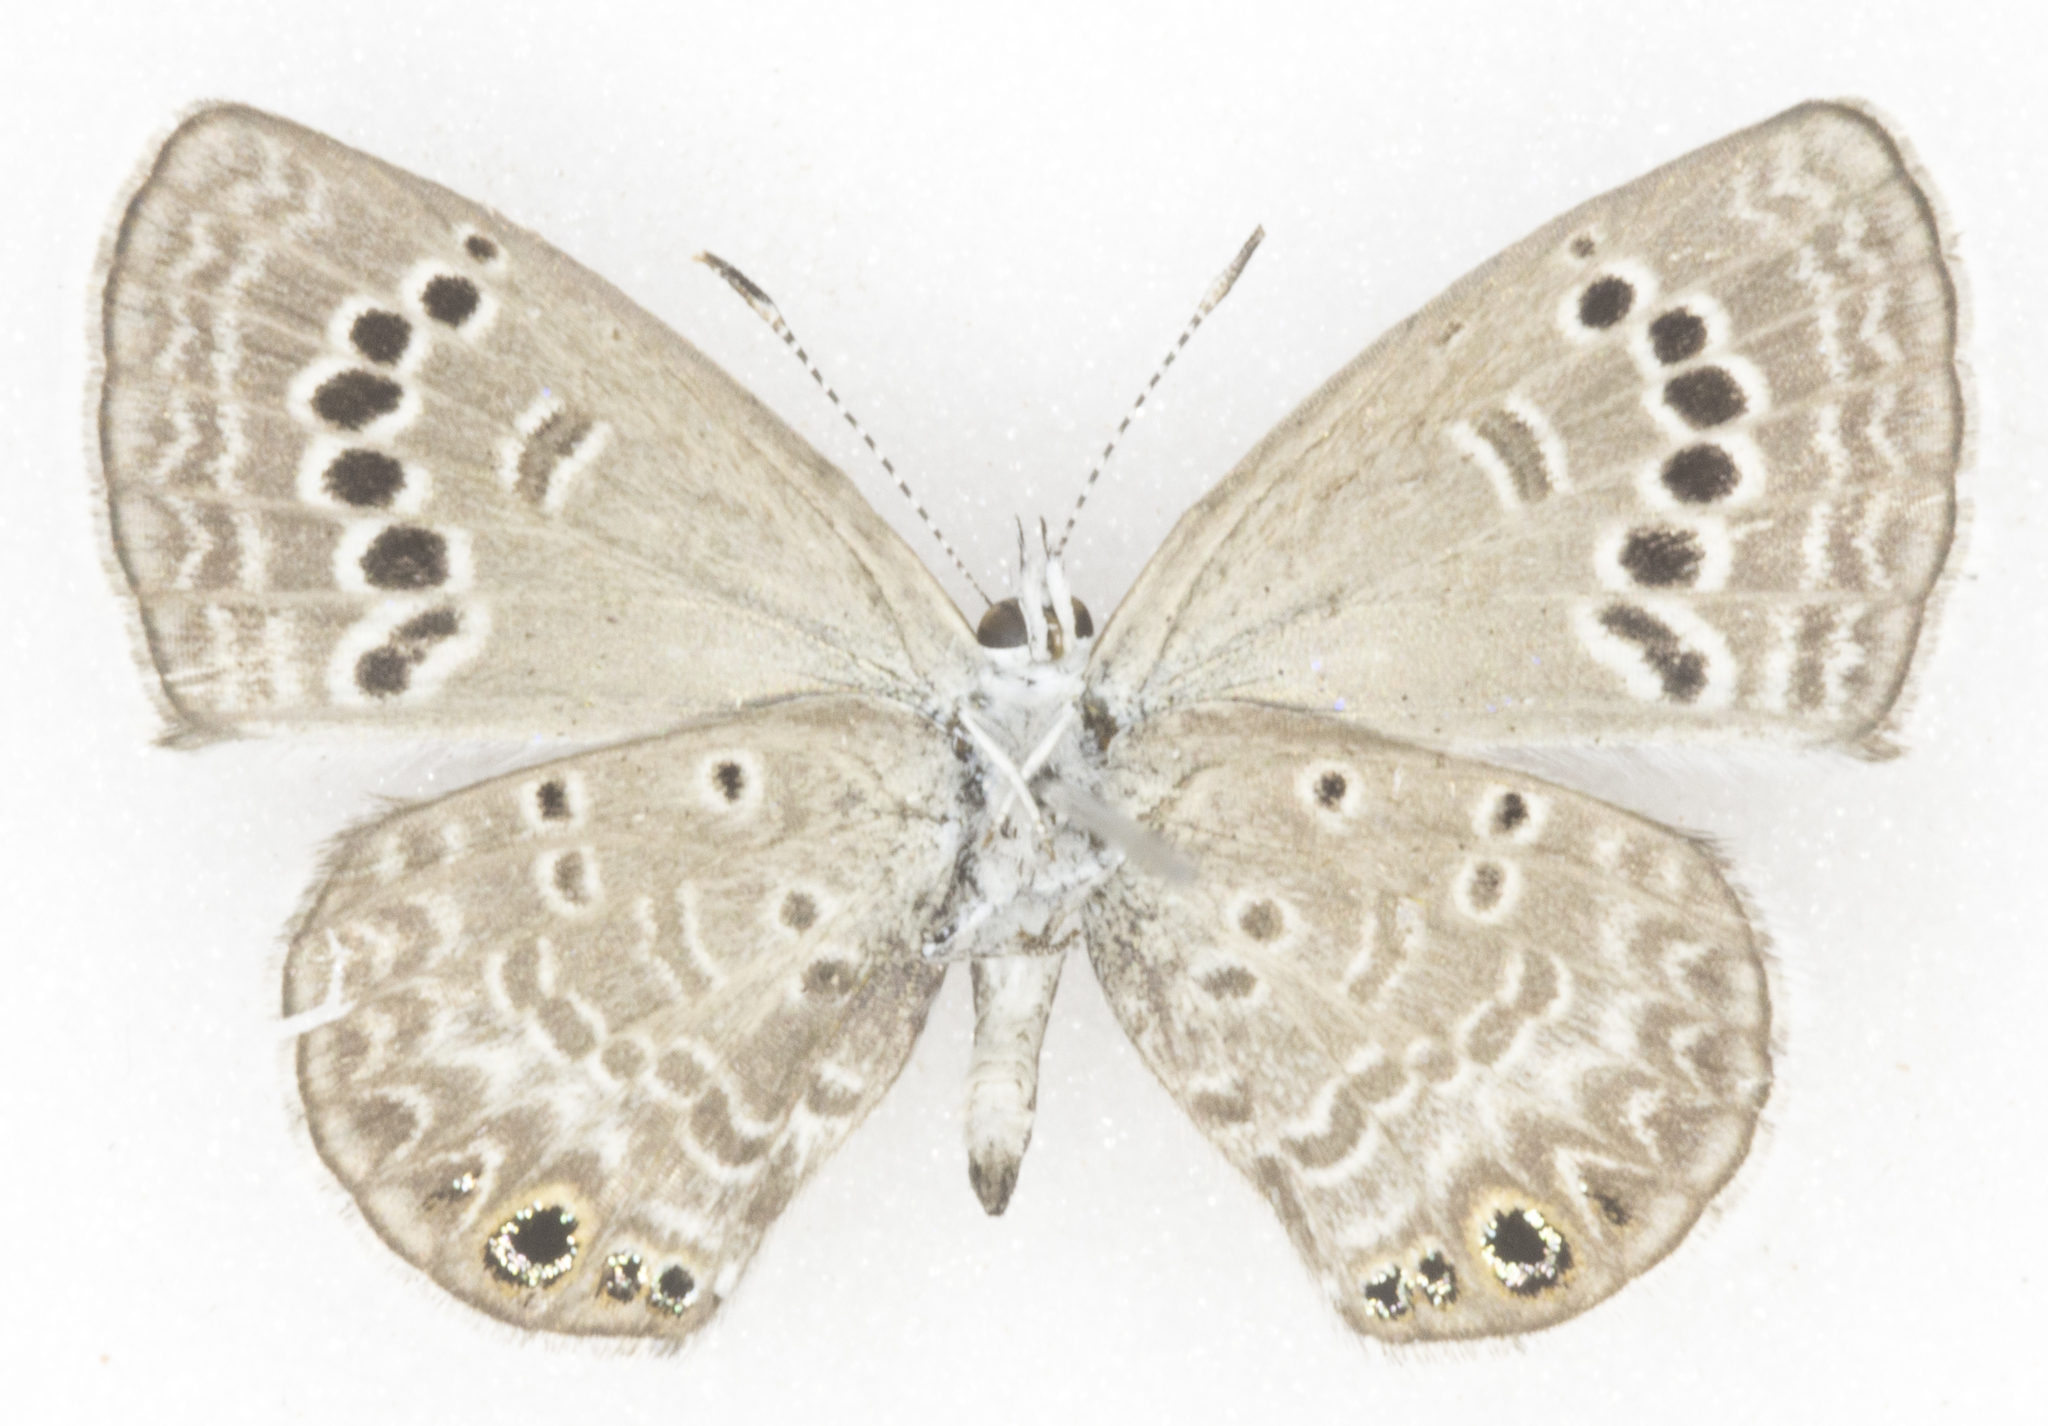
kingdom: Animalia
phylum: Arthropoda
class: Insecta
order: Lepidoptera
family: Lycaenidae
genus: Echinargus
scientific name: Echinargus isola
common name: Reakirt's blue
